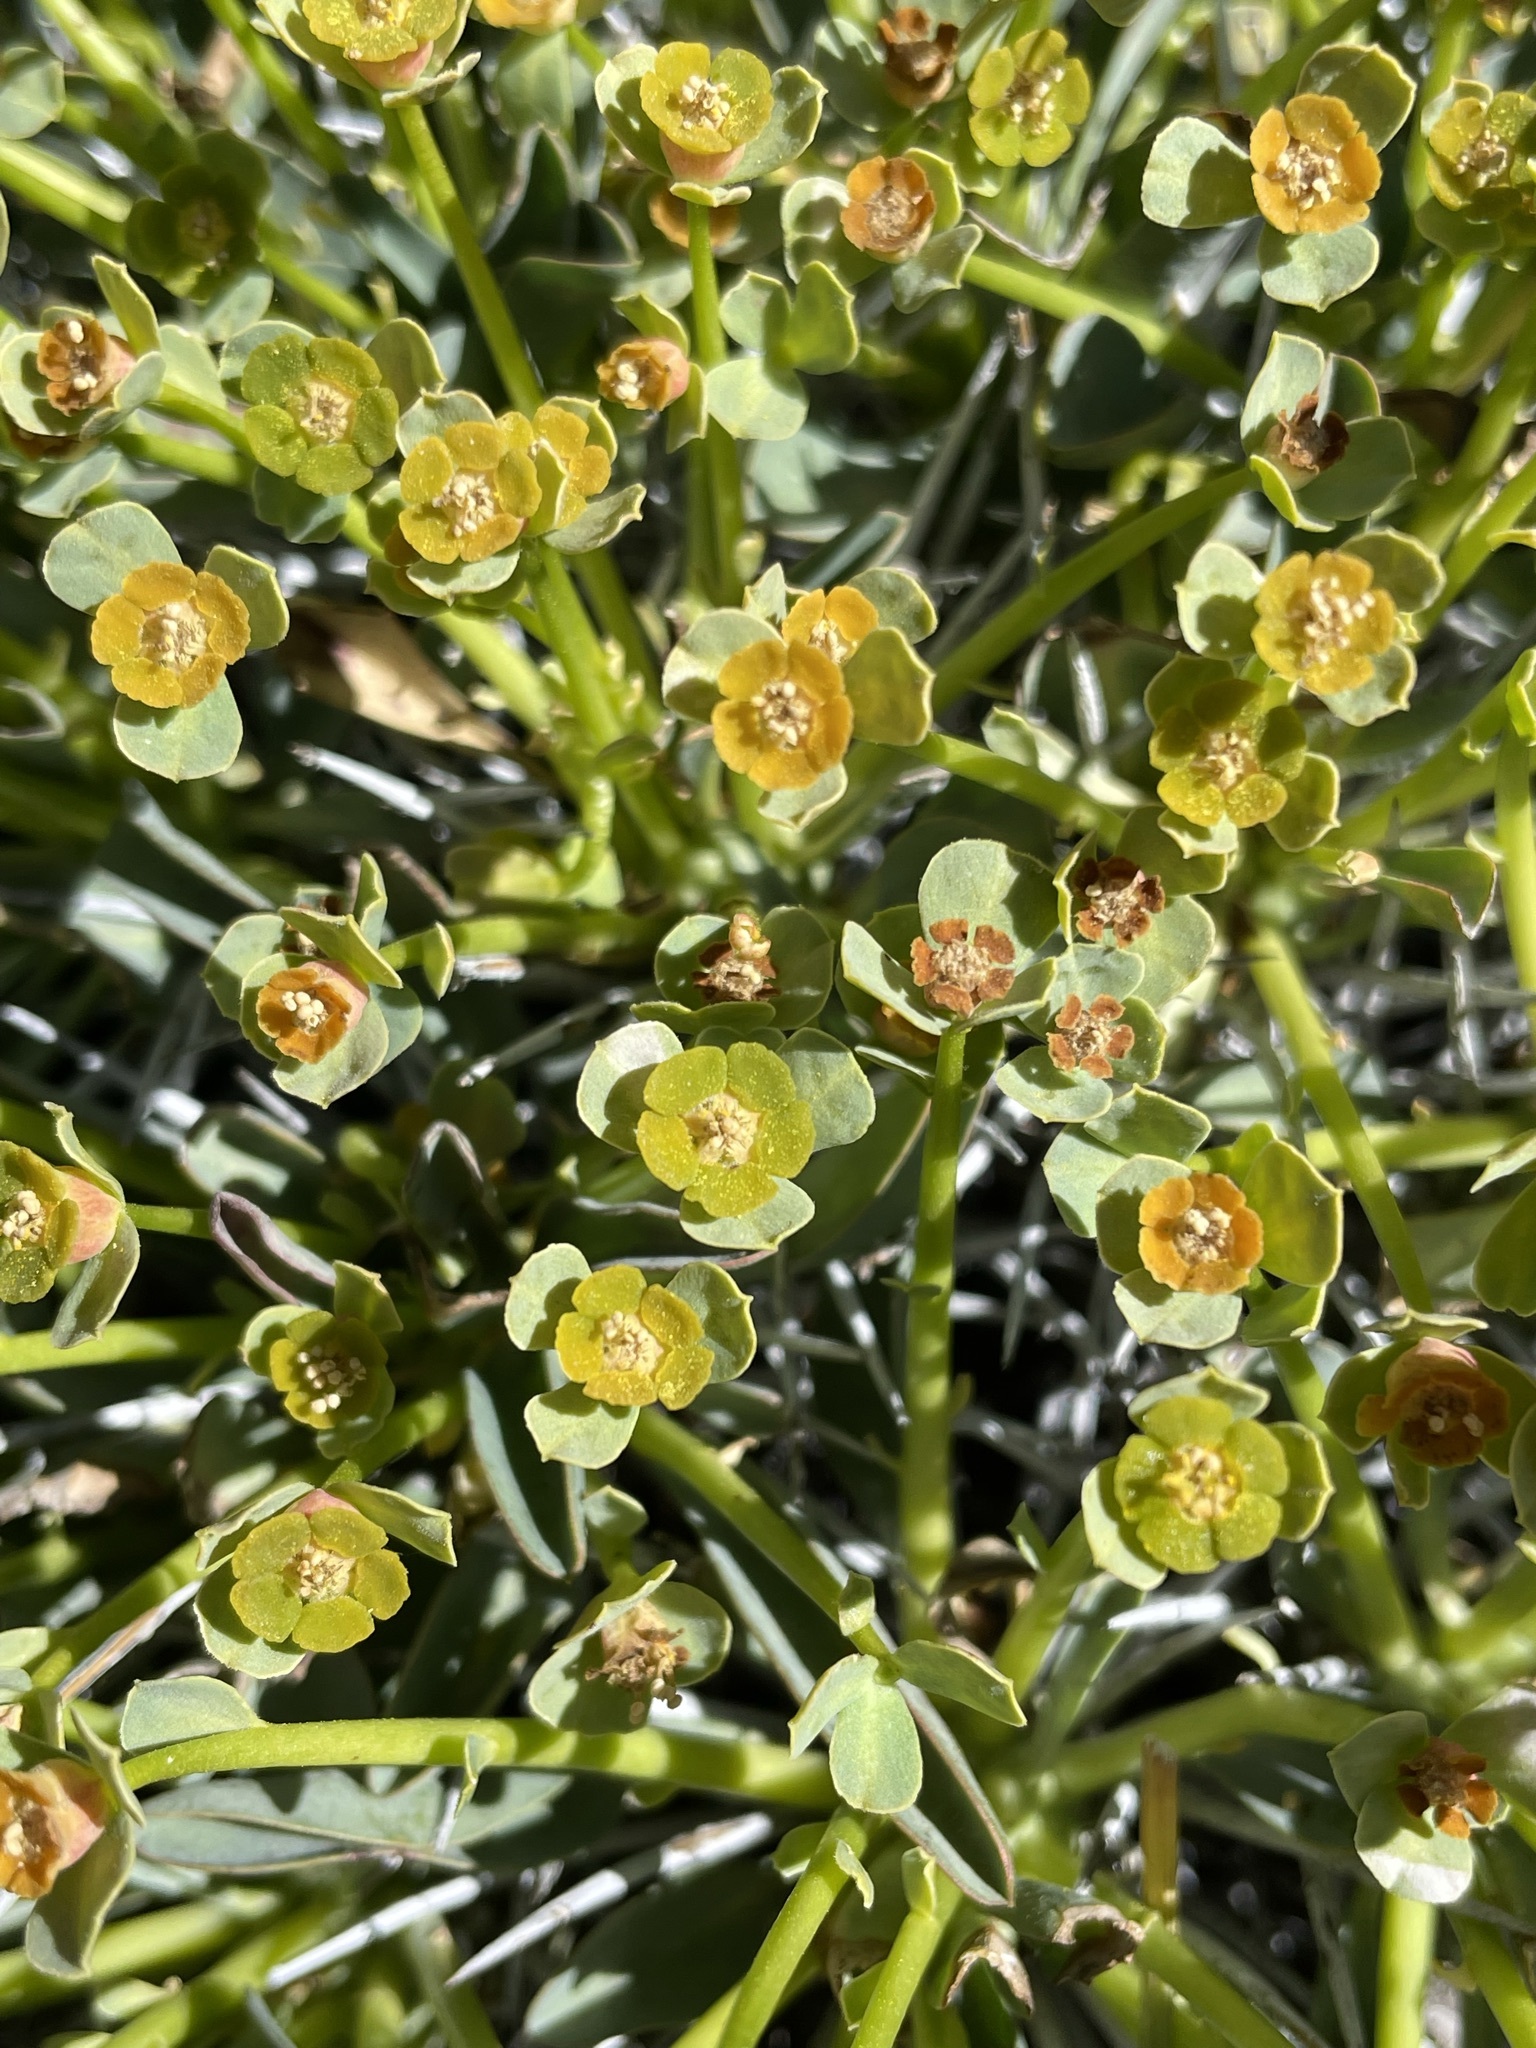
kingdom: Plantae
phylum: Tracheophyta
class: Magnoliopsida
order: Malpighiales
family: Euphorbiaceae
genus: Euphorbia
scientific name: Euphorbia loricata
